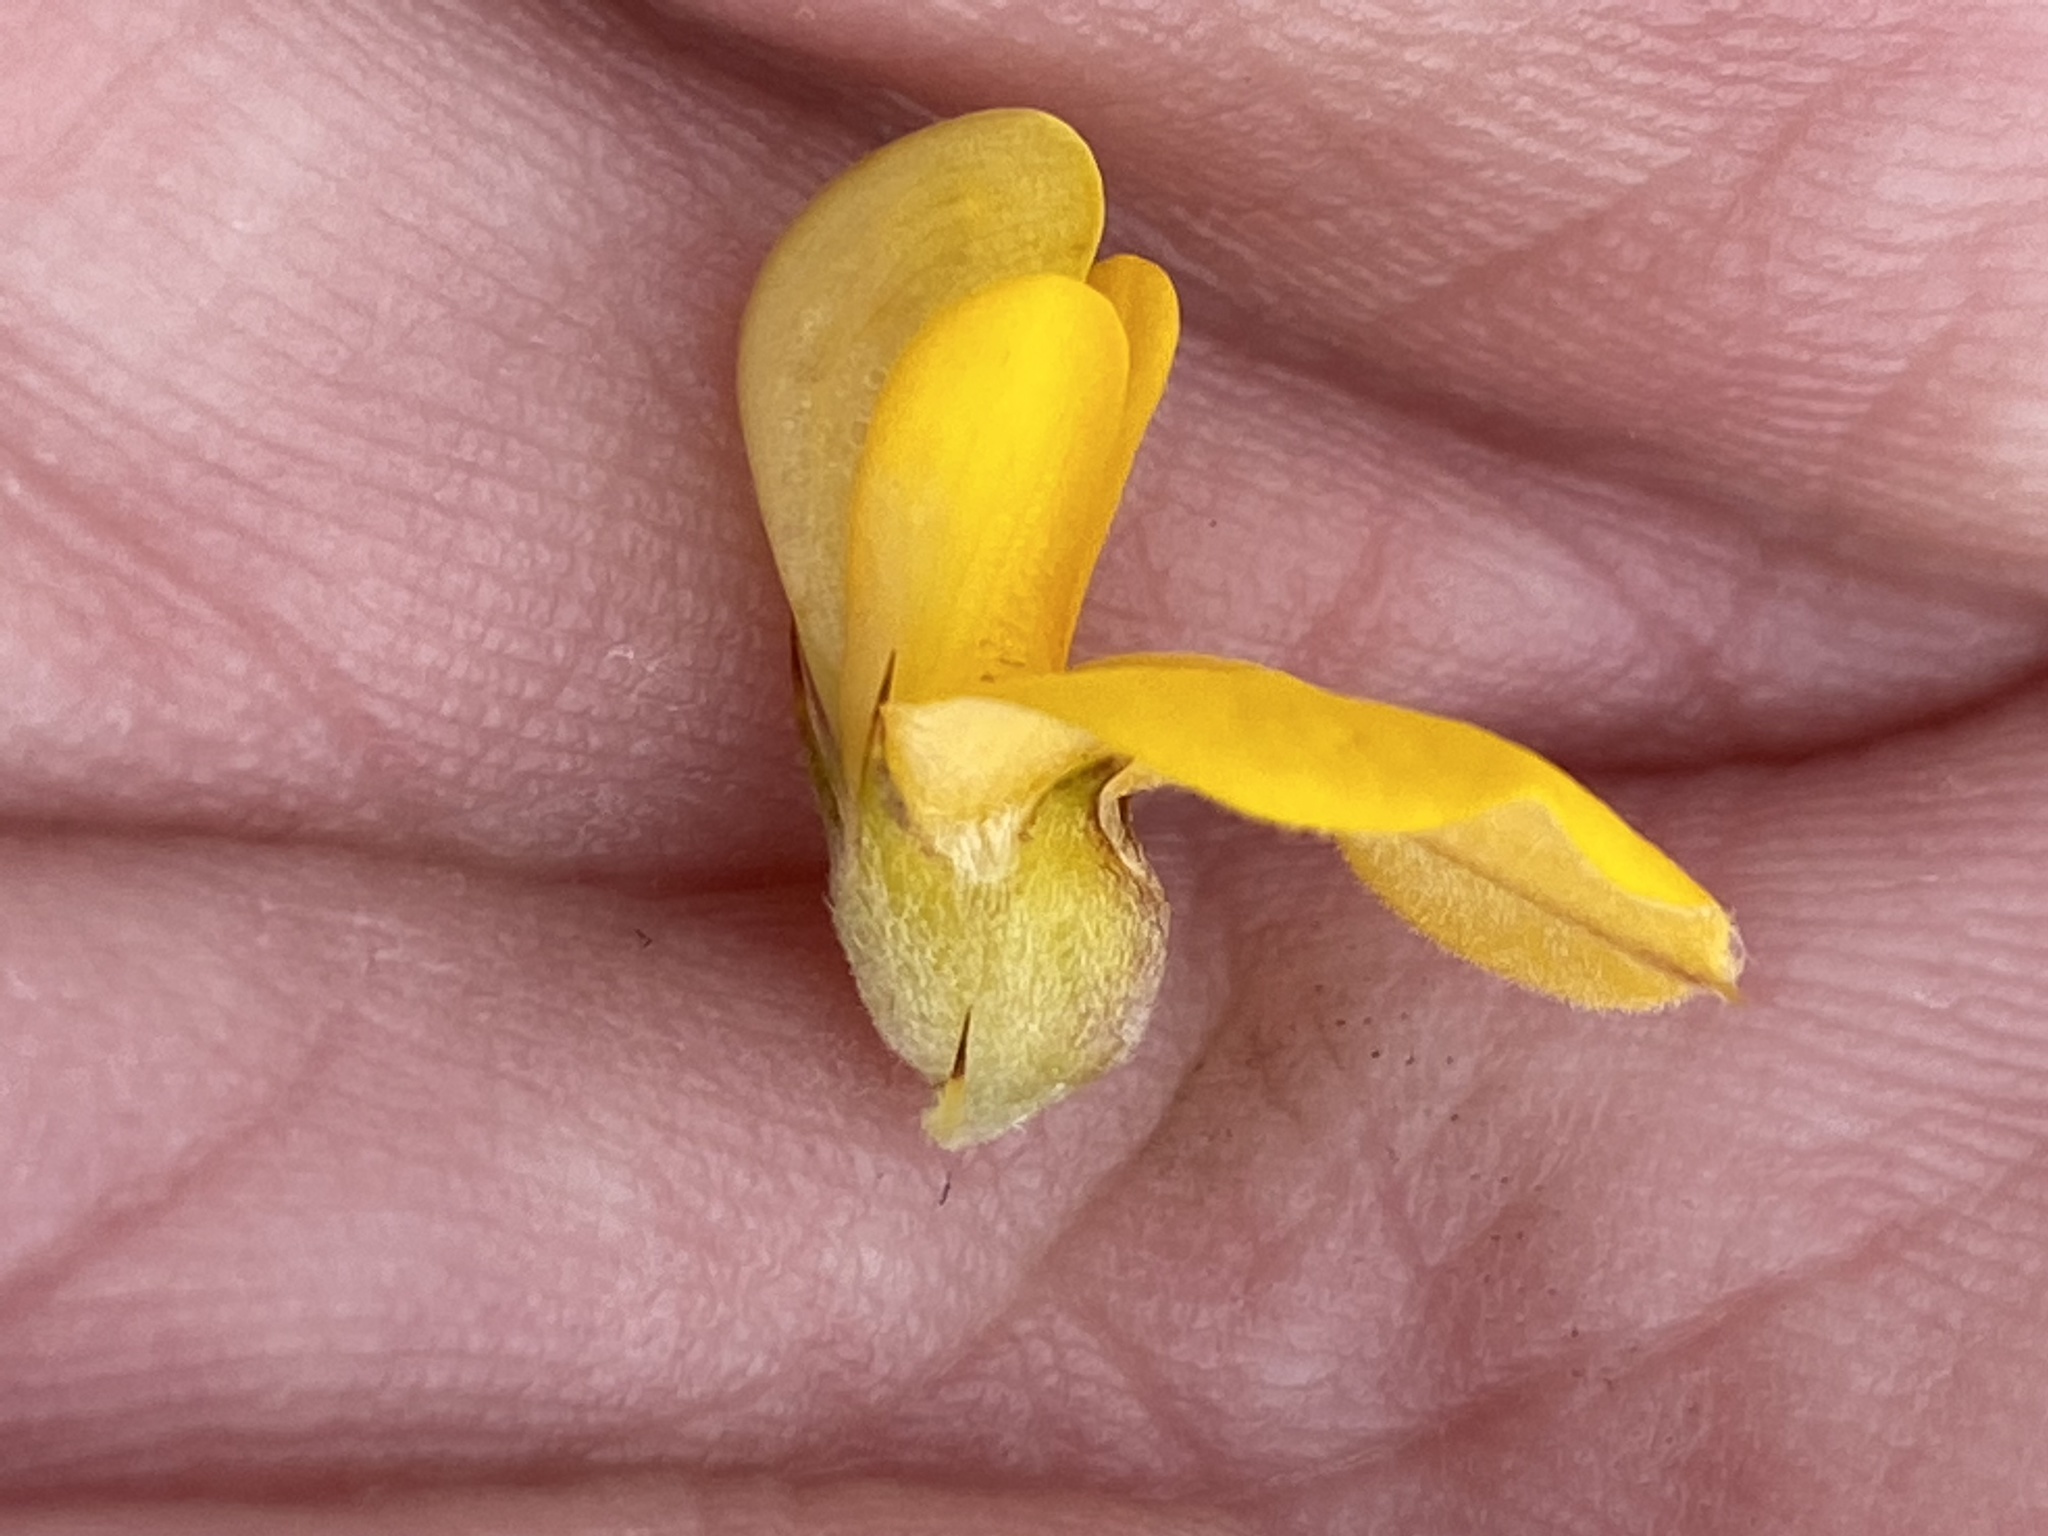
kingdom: Plantae
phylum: Tracheophyta
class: Magnoliopsida
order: Fabales
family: Fabaceae
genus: Aspalathus
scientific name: Aspalathus hirta
